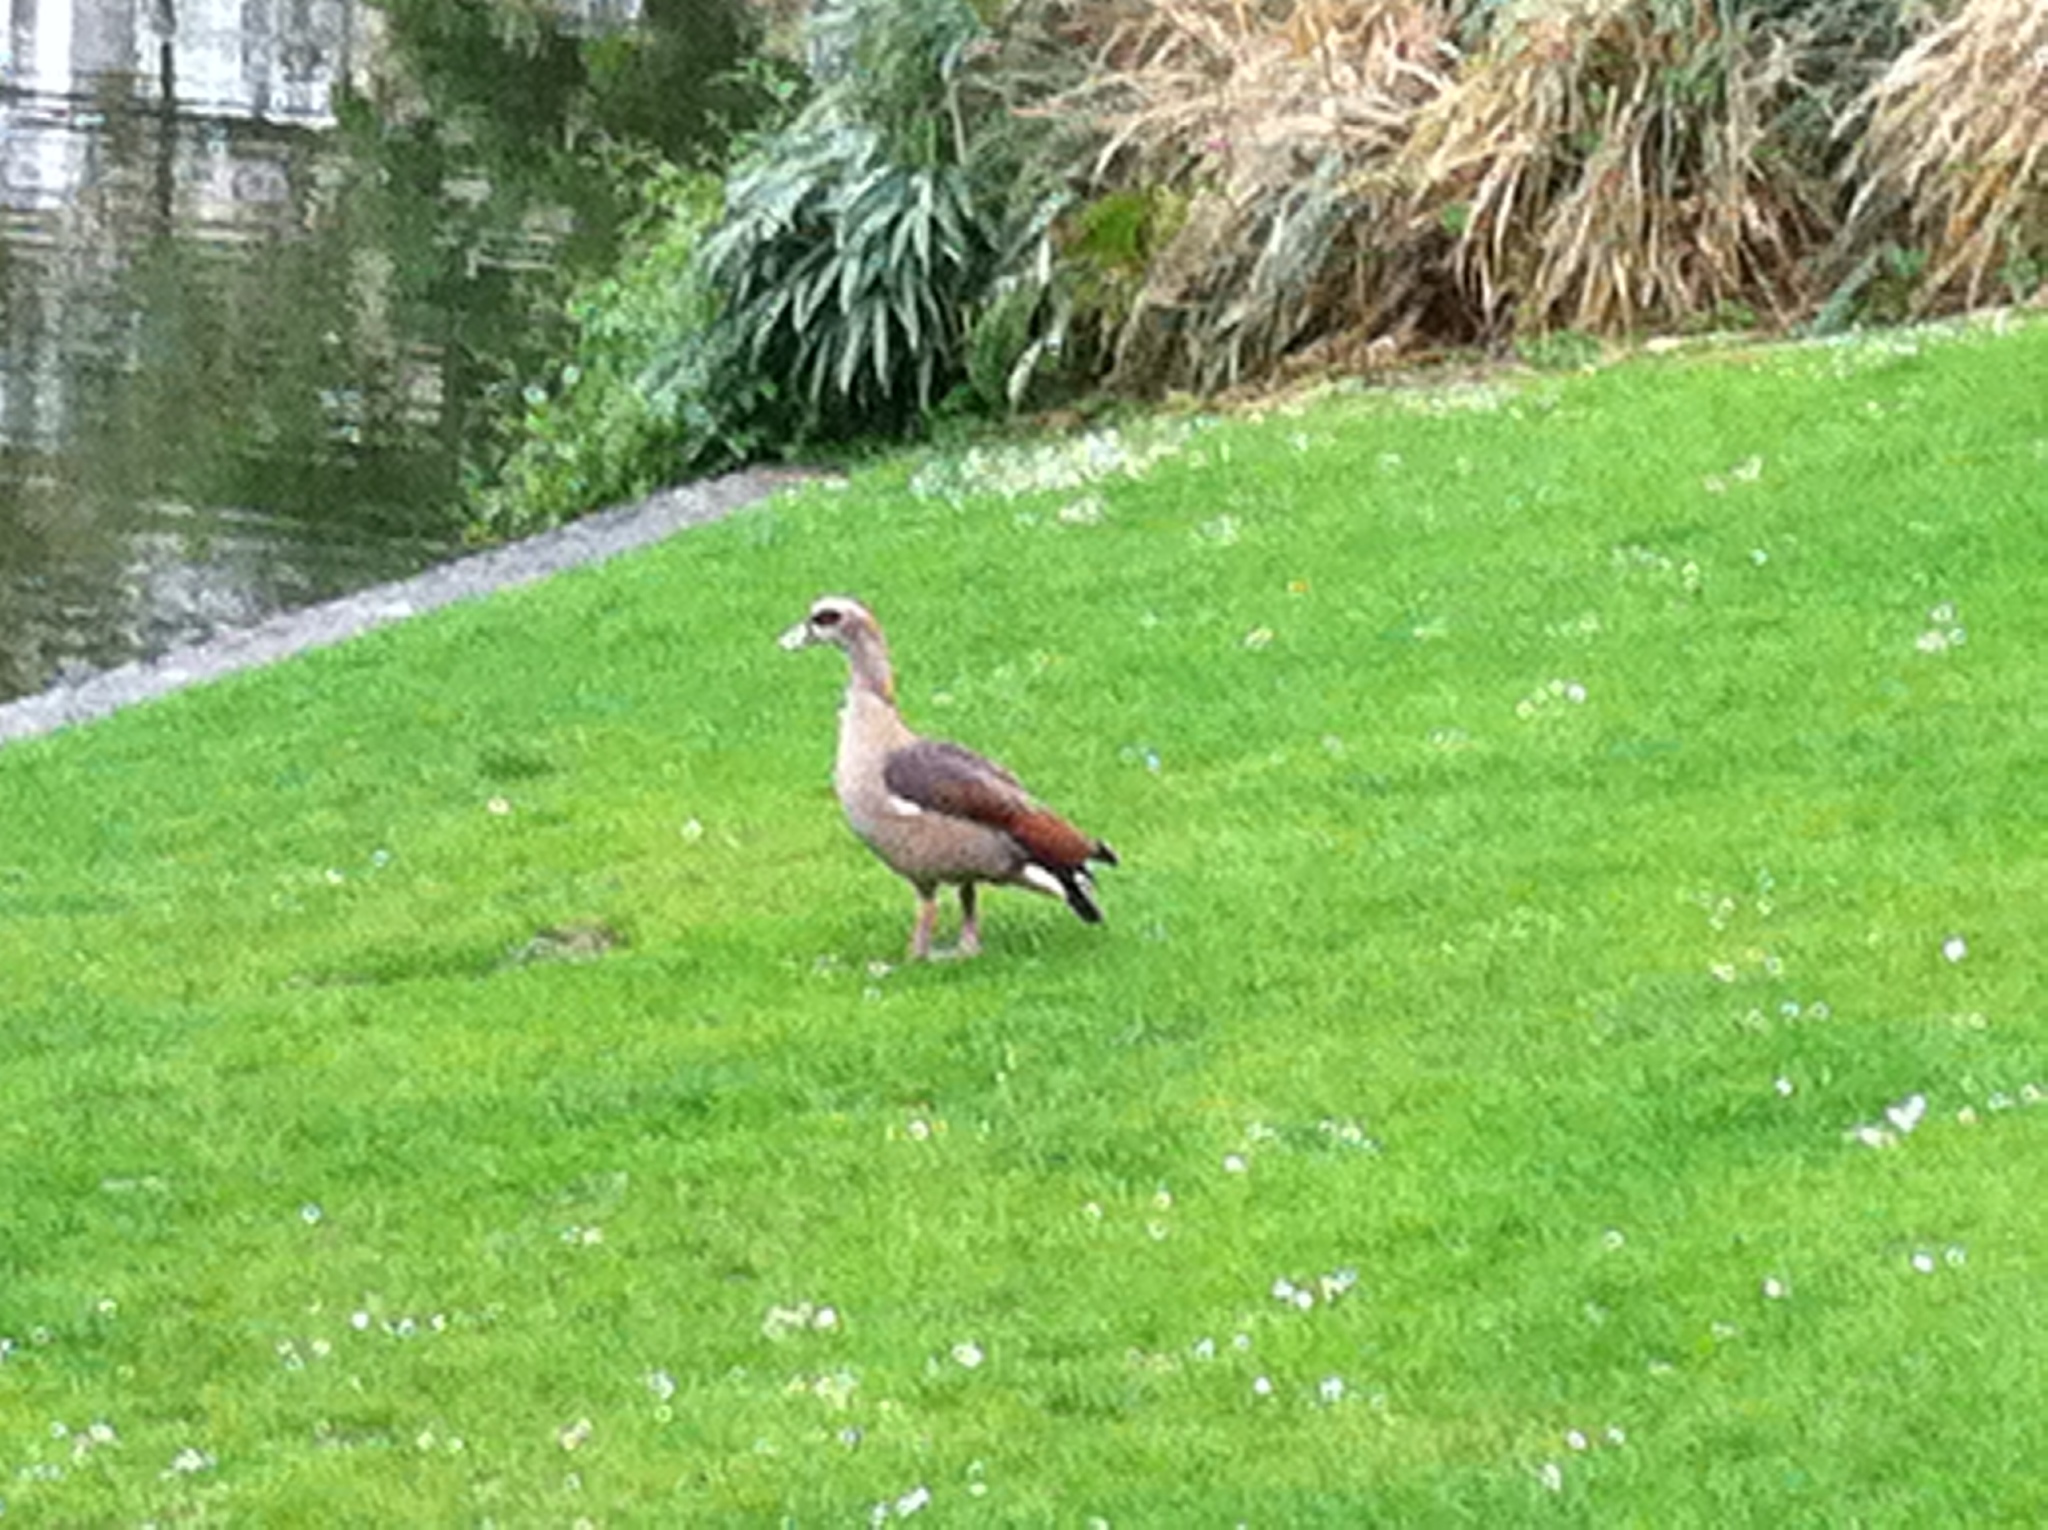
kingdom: Animalia
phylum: Chordata
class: Aves
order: Anseriformes
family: Anatidae
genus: Alopochen
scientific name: Alopochen aegyptiaca
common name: Egyptian goose
